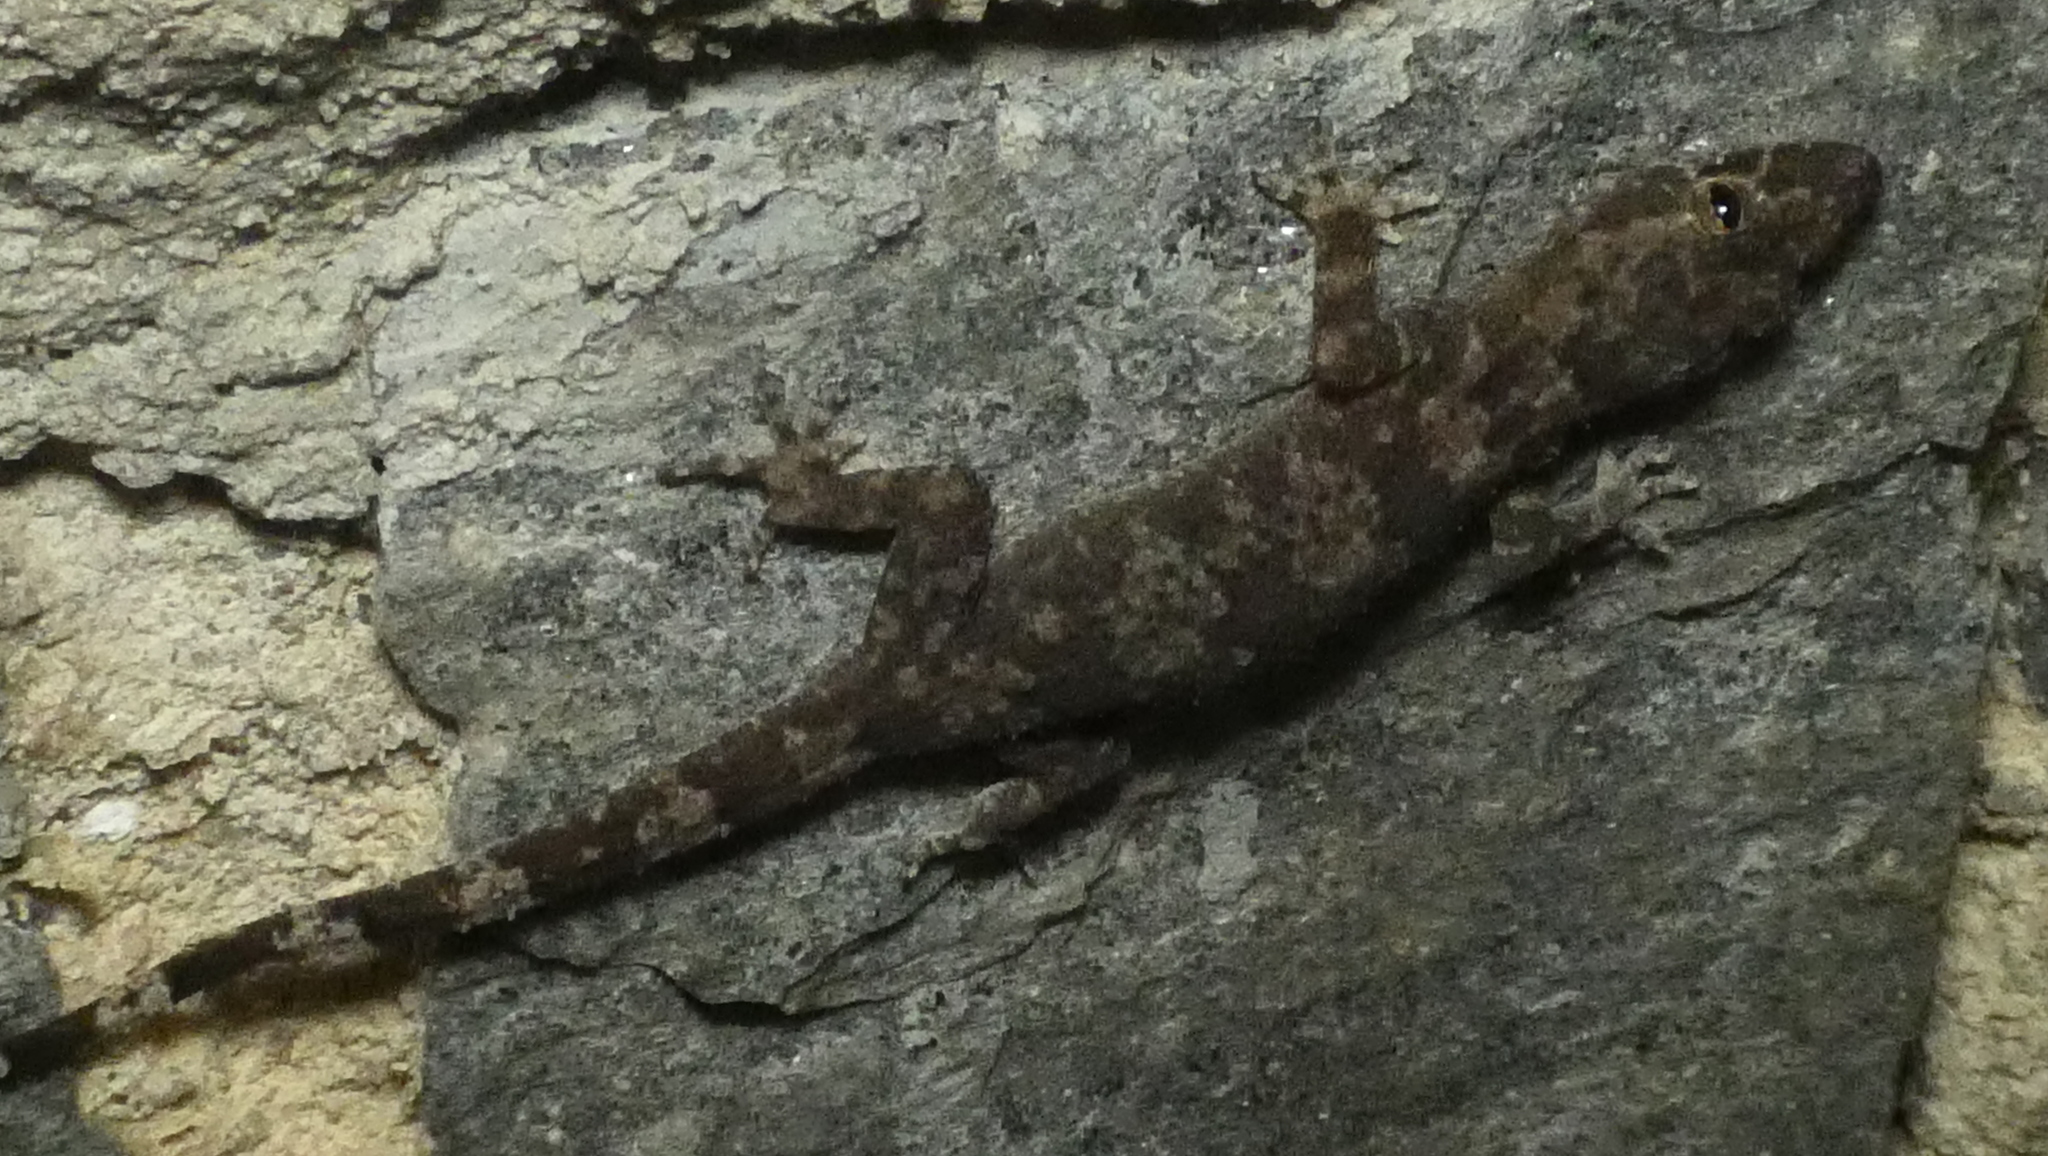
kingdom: Animalia
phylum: Chordata
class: Squamata
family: Gekkonidae
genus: Hemidactylus
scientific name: Hemidactylus mabouia
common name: House gecko
